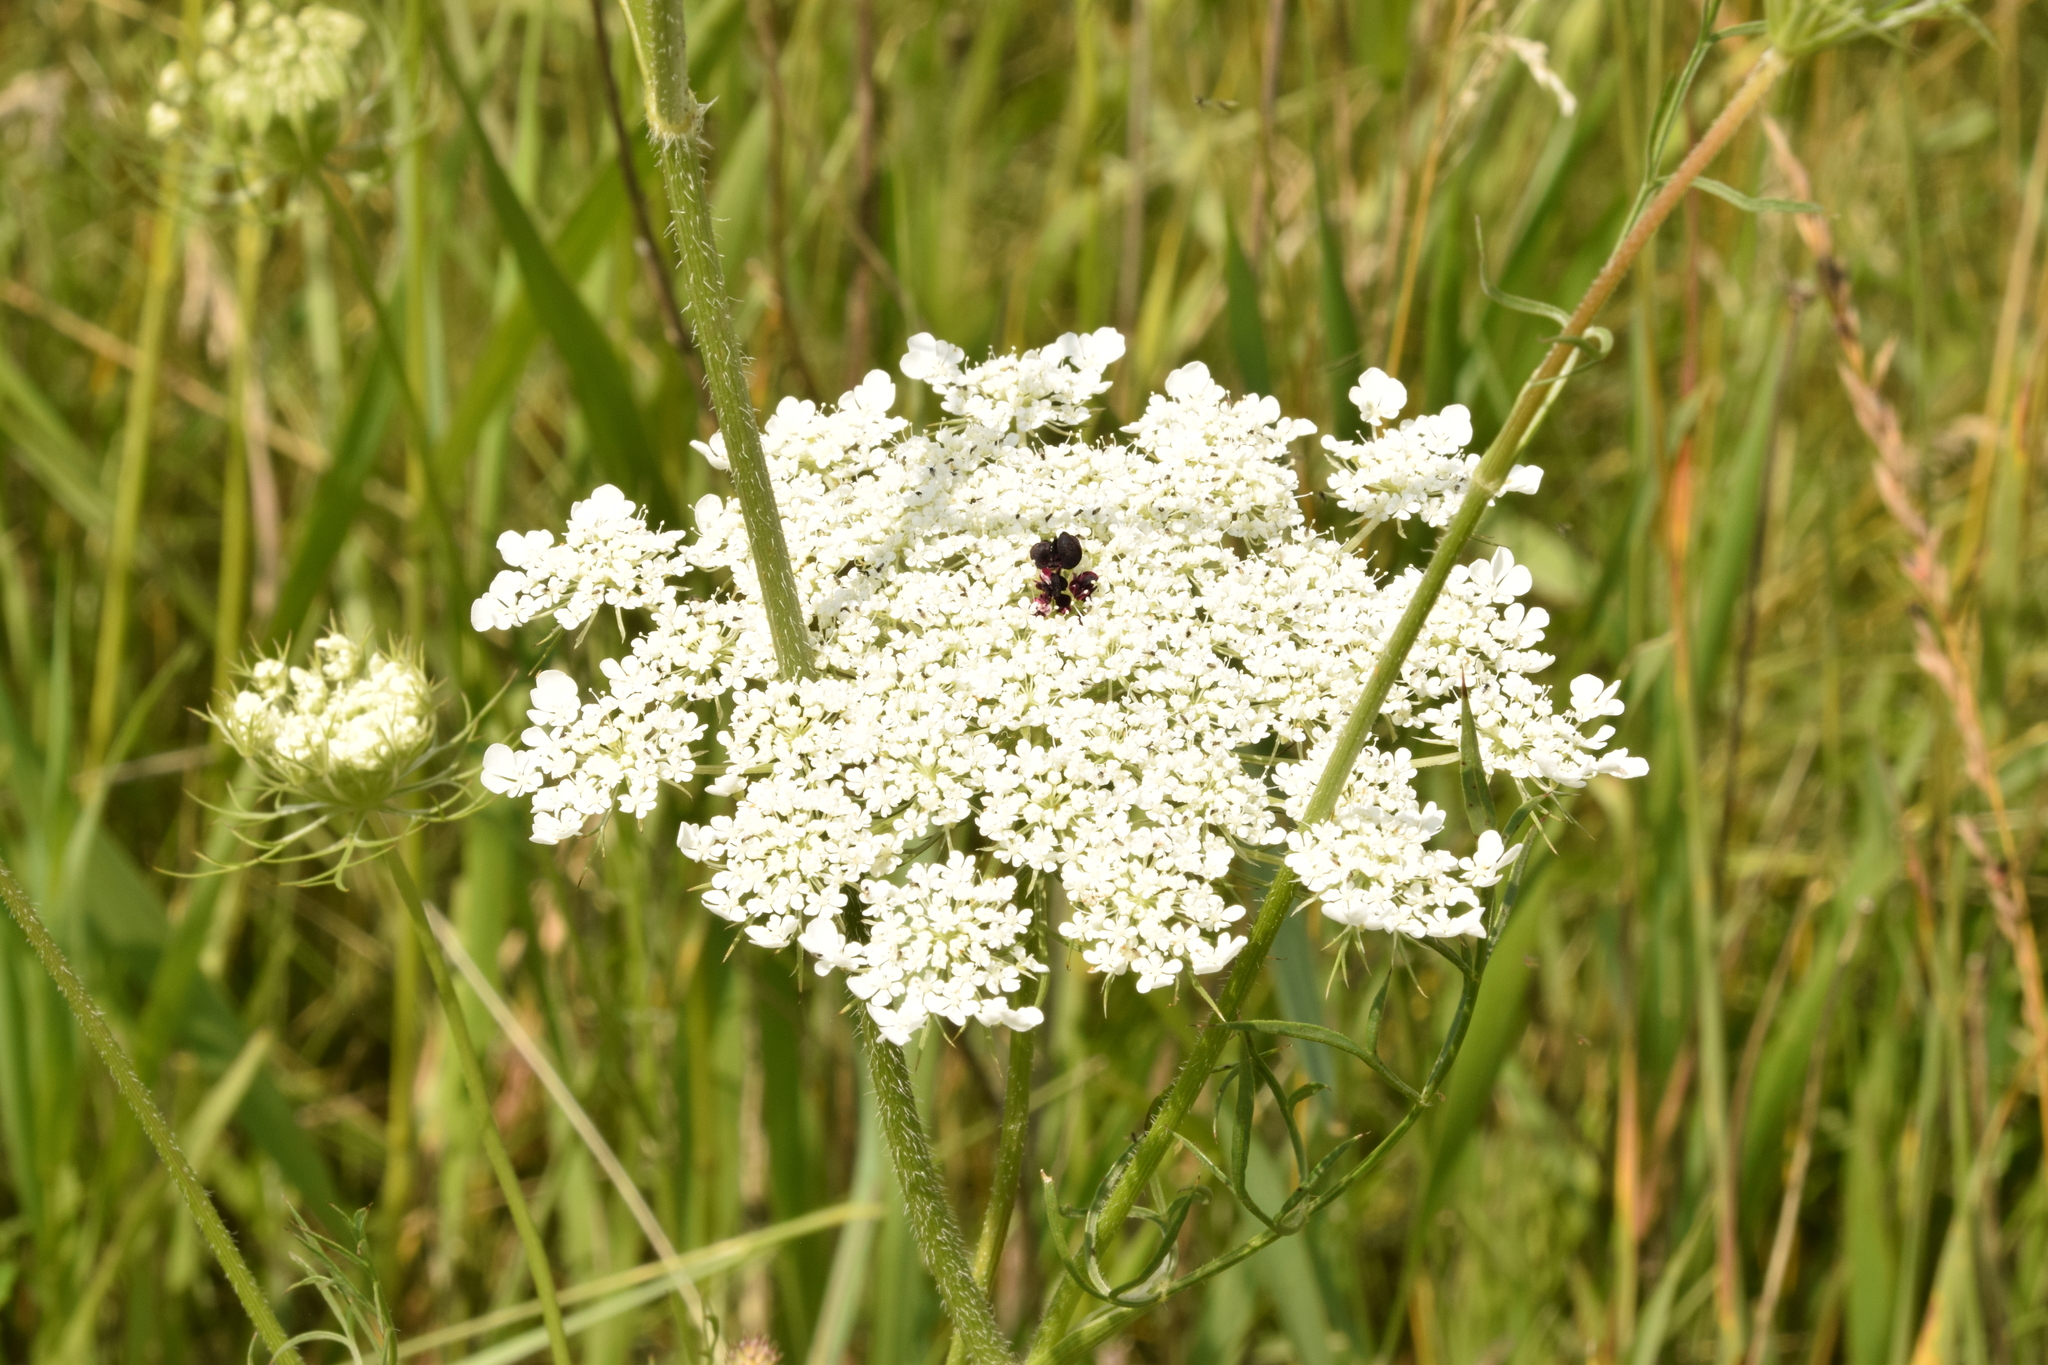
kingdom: Plantae
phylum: Tracheophyta
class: Magnoliopsida
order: Apiales
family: Apiaceae
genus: Daucus
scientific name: Daucus carota
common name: Wild carrot
